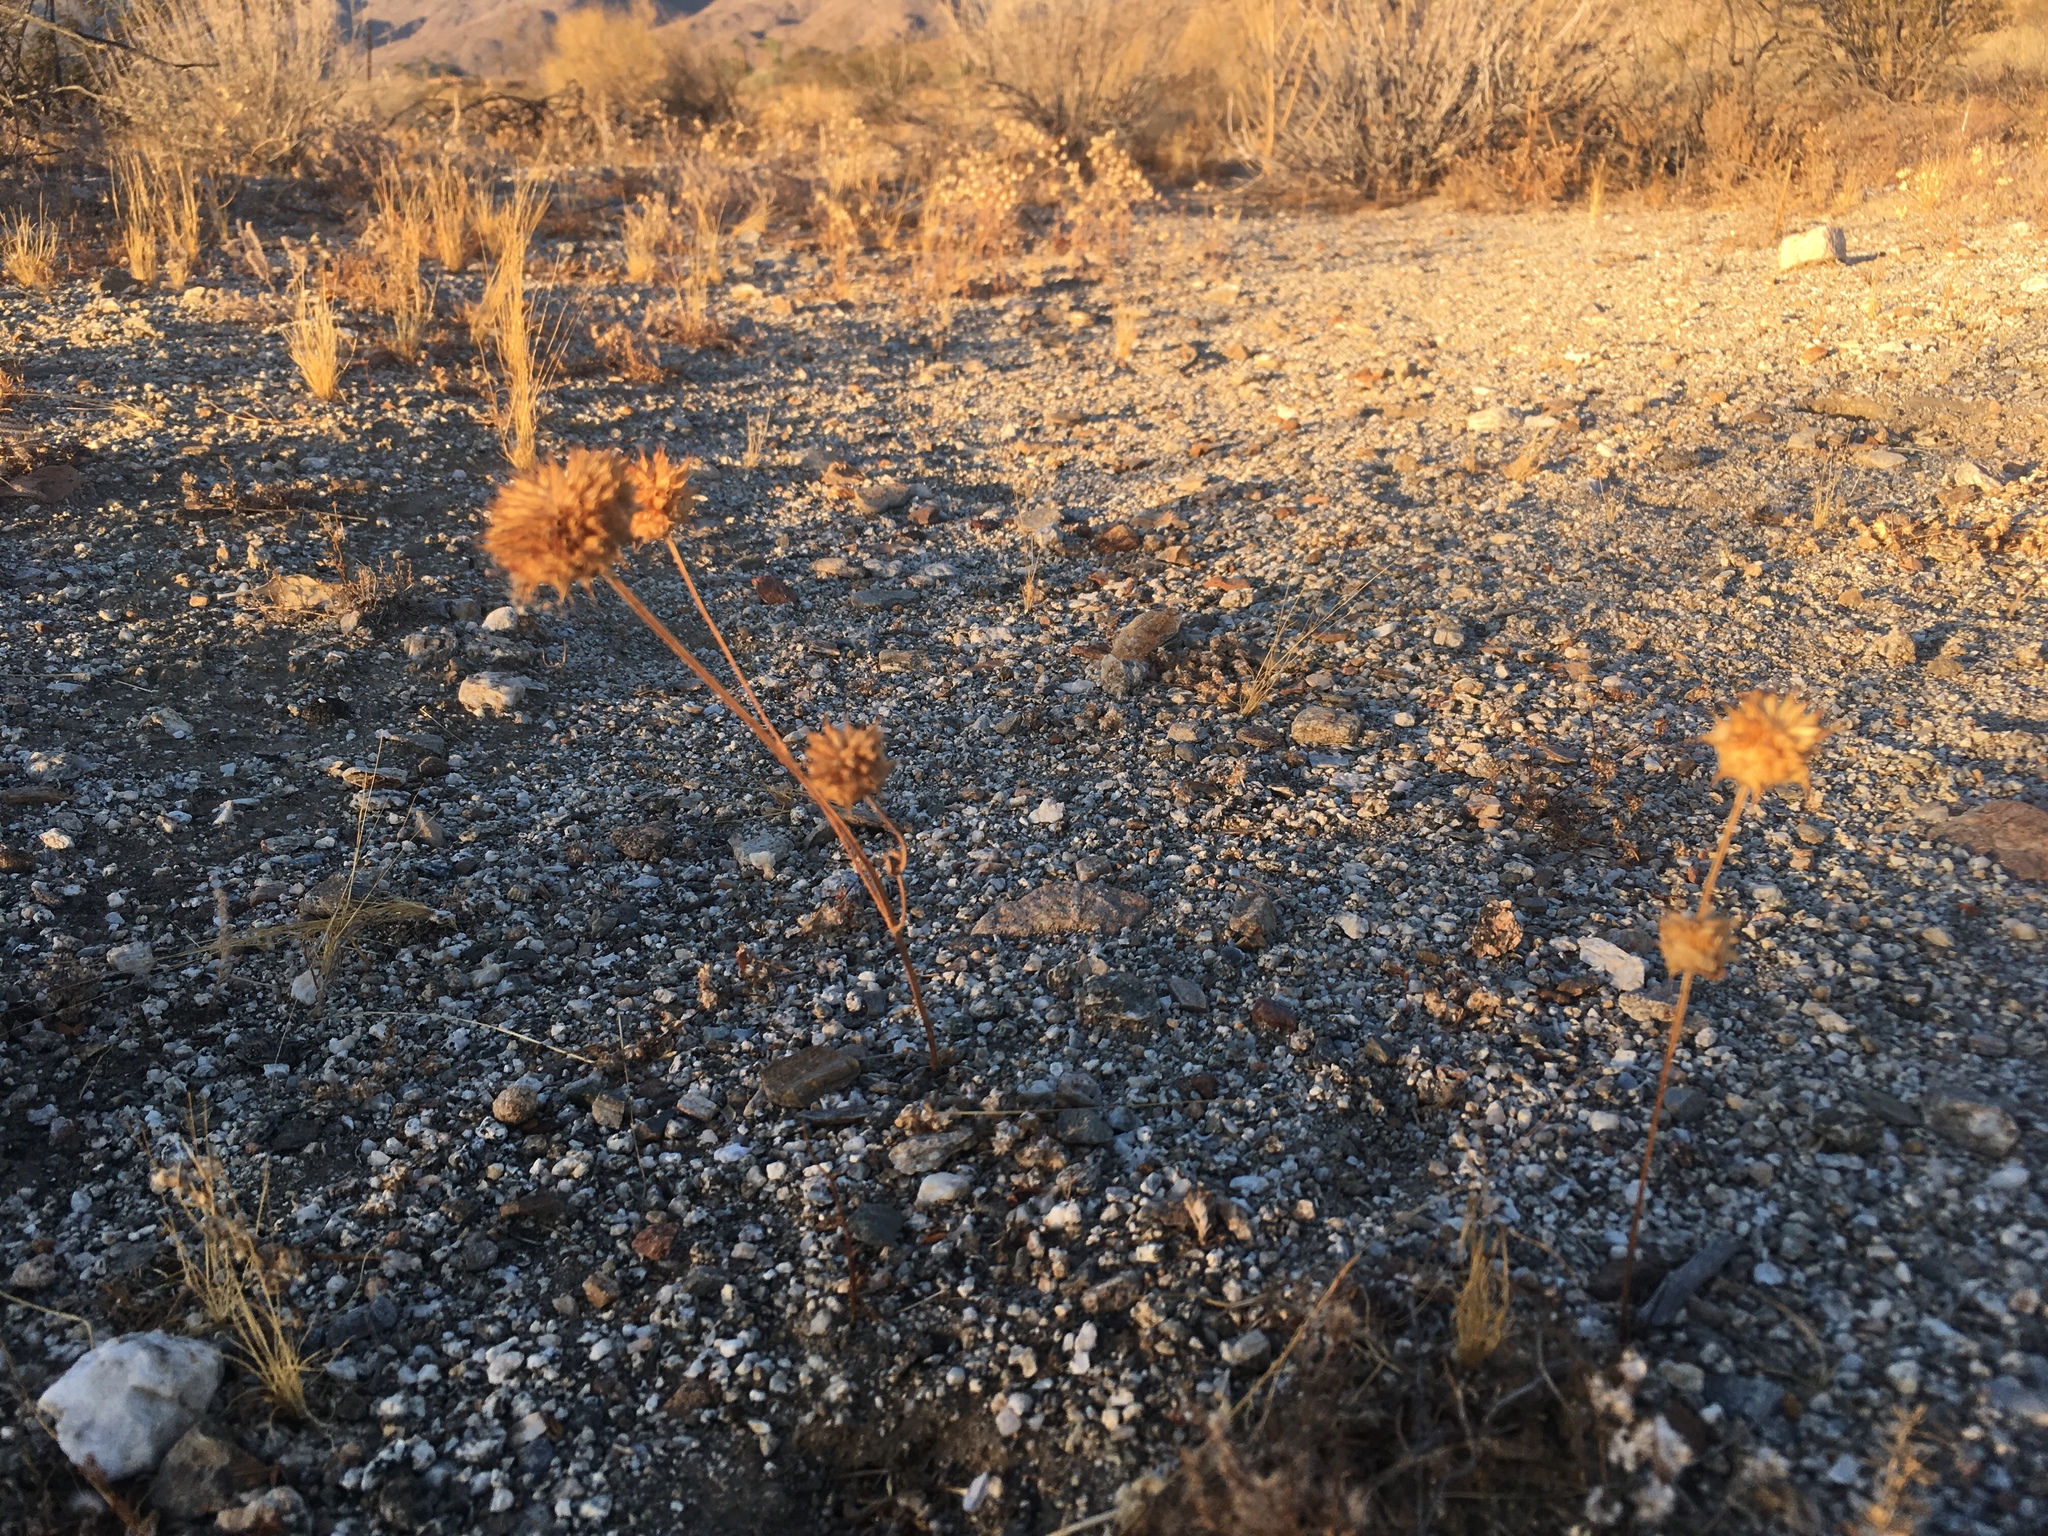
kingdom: Plantae
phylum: Tracheophyta
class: Magnoliopsida
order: Lamiales
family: Lamiaceae
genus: Salvia
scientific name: Salvia columbariae
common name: Chia
